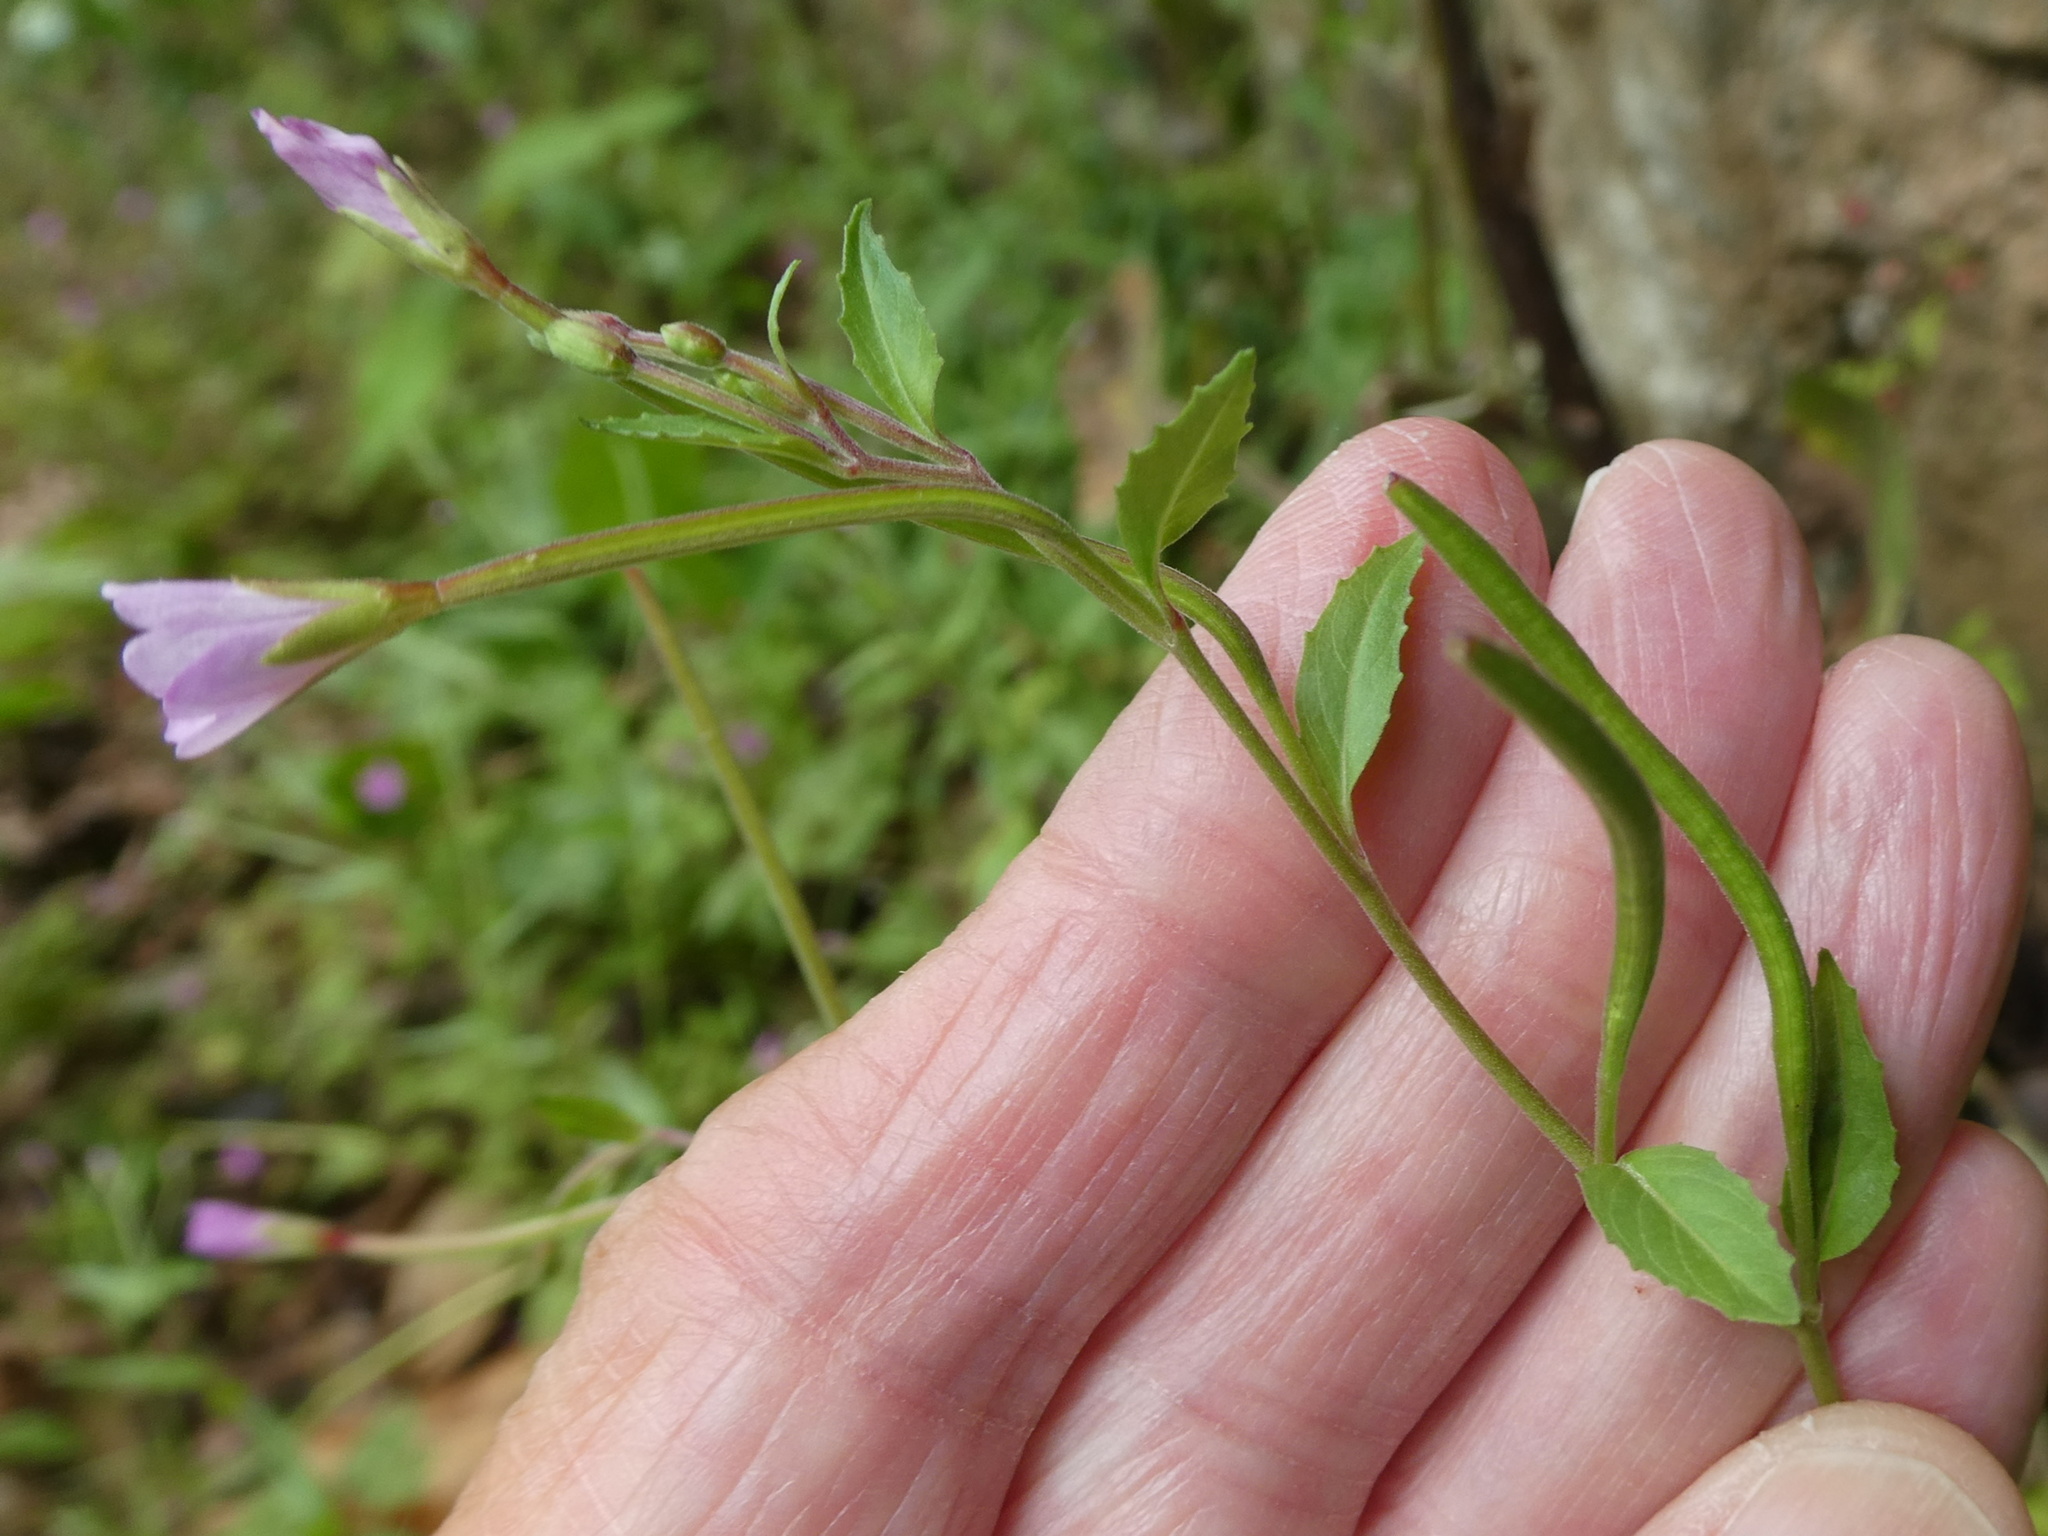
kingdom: Plantae
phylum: Tracheophyta
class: Magnoliopsida
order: Myrtales
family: Onagraceae
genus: Epilobium
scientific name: Epilobium montanum
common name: Broad-leaved willowherb
